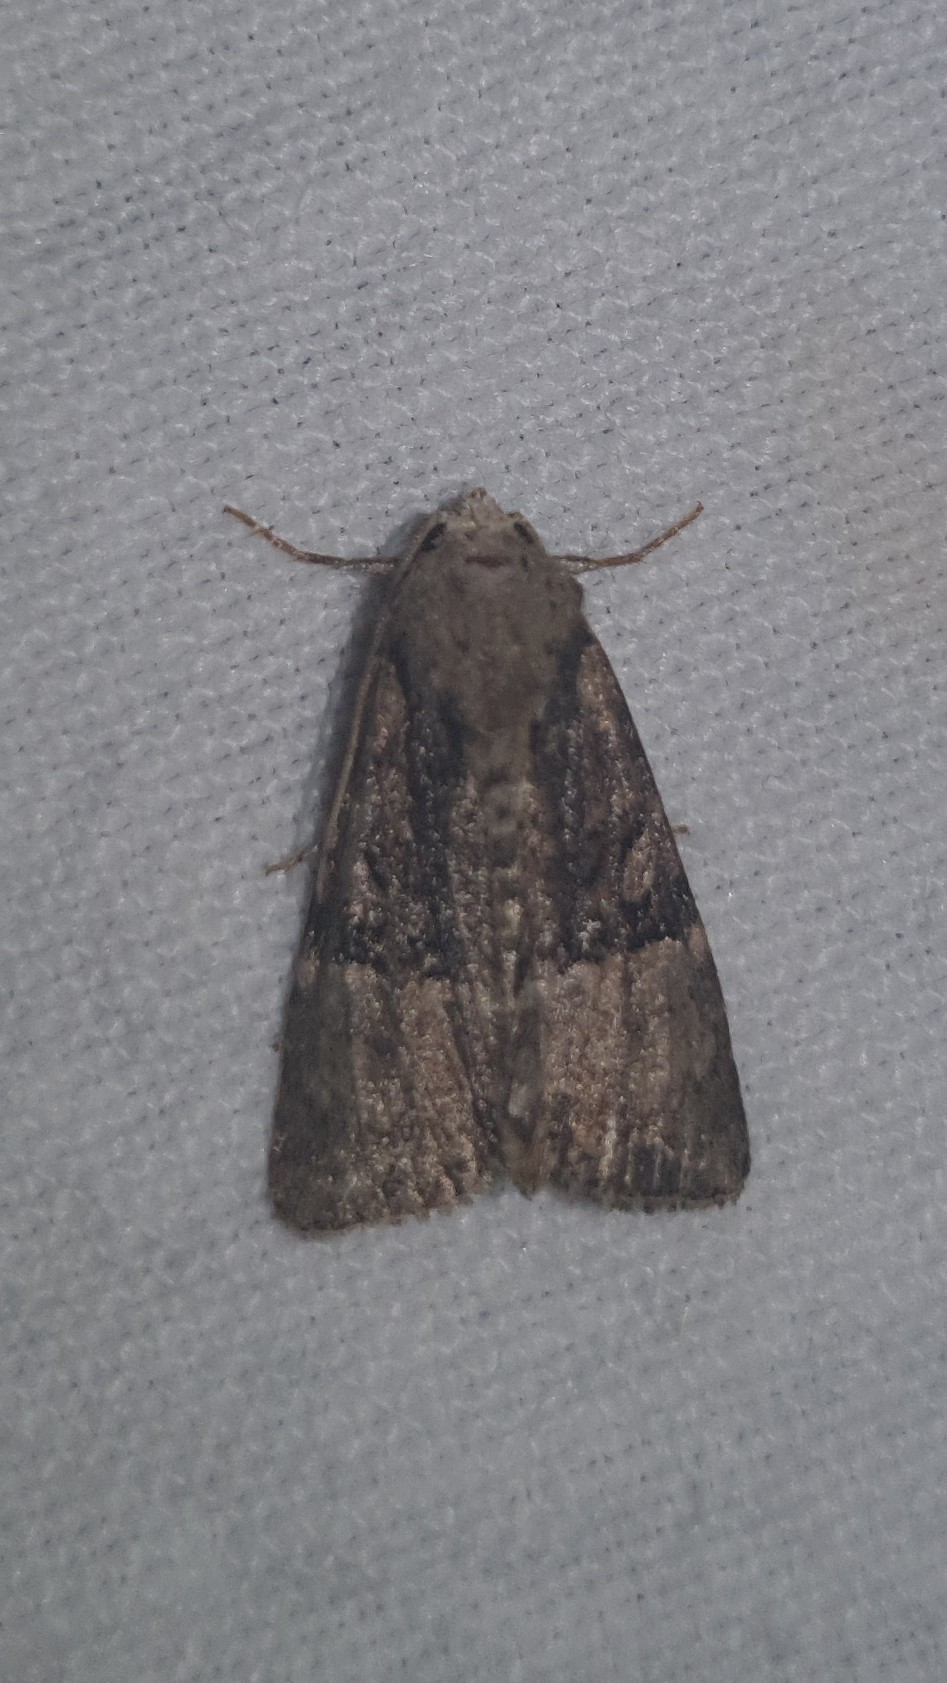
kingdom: Animalia
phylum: Arthropoda
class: Insecta
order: Lepidoptera
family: Noctuidae
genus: Mesoligia
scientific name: Mesoligia furuncula
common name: Cloaked minor
